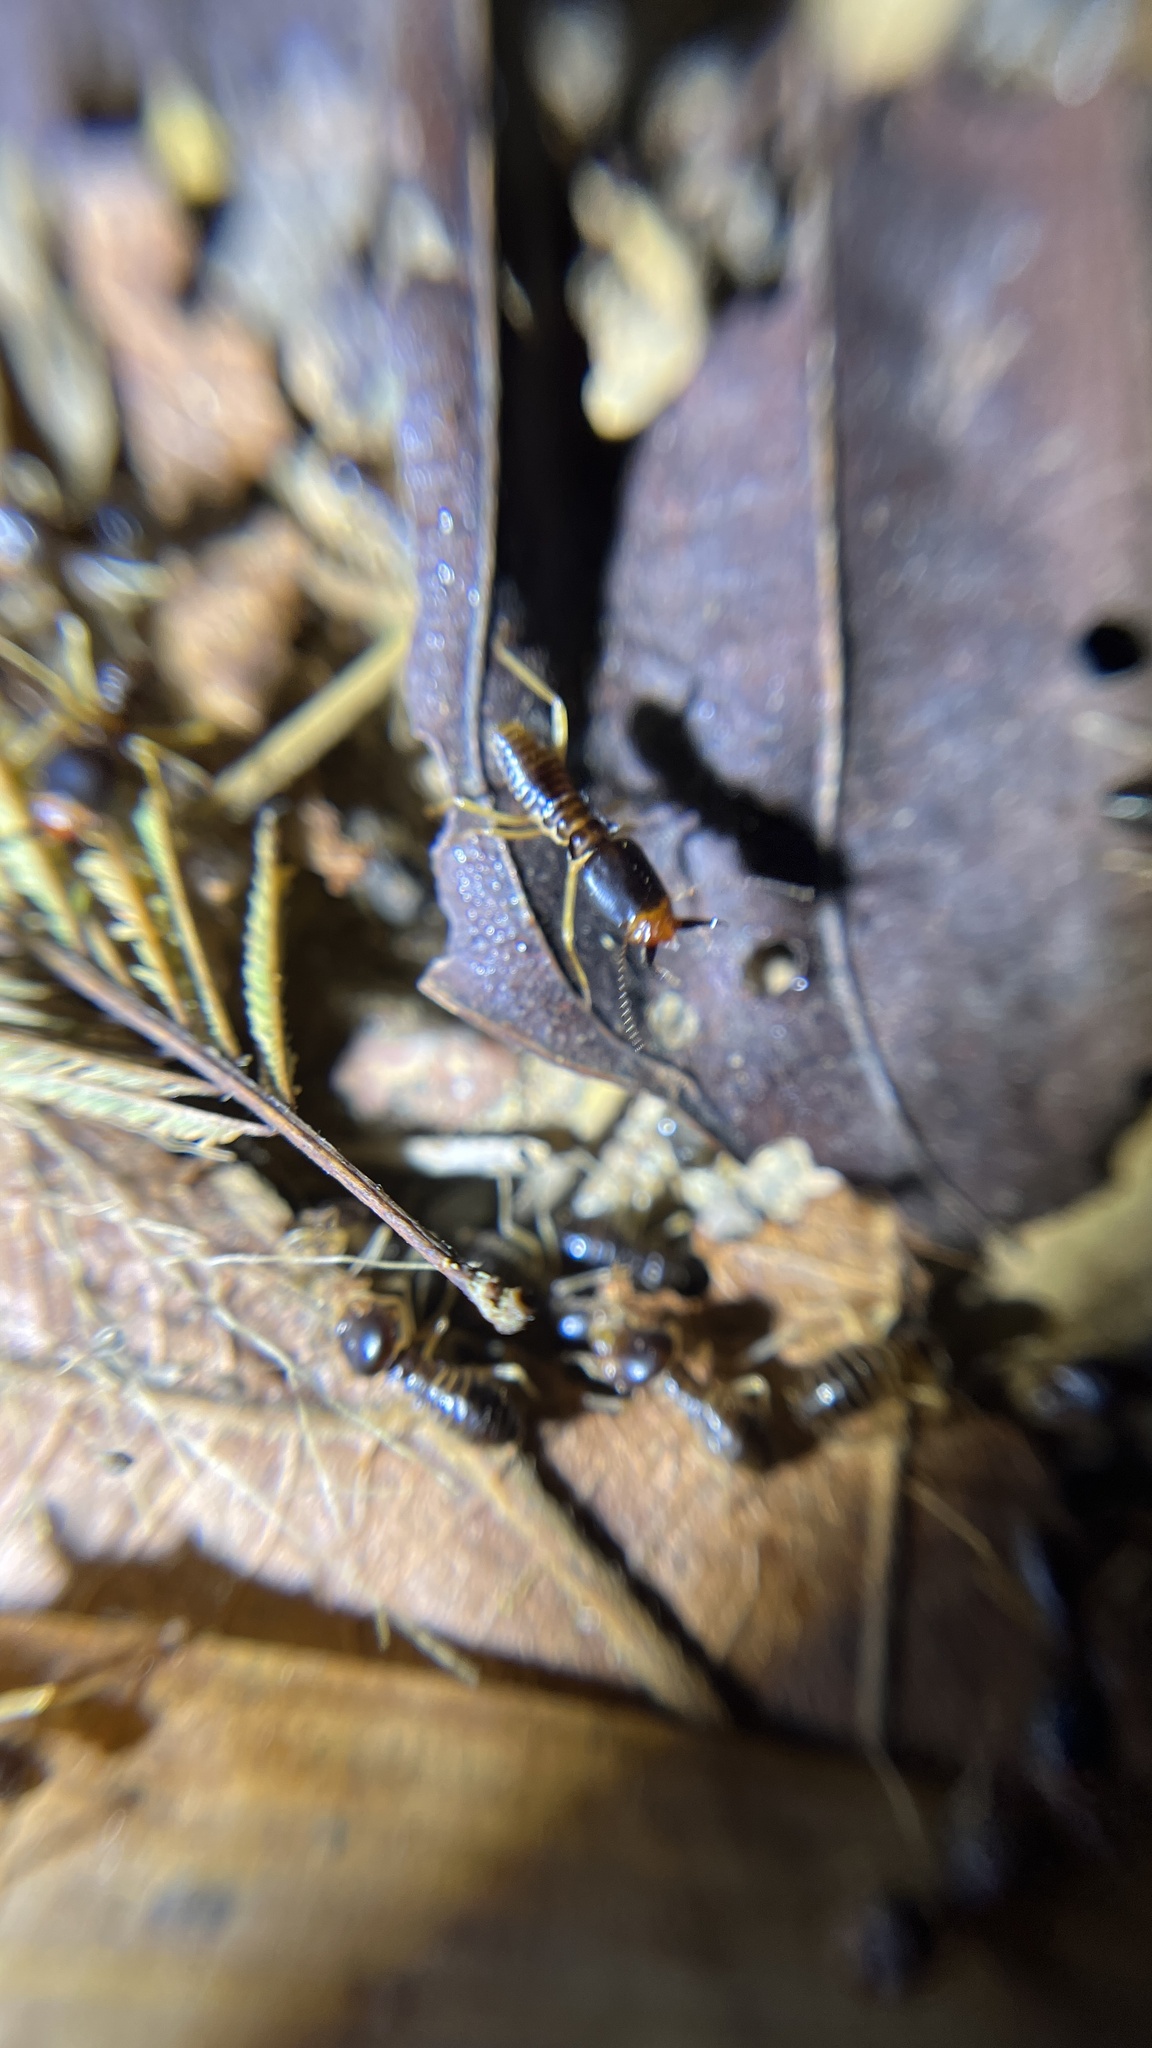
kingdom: Animalia
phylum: Arthropoda
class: Insecta
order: Blattodea
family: Termitidae
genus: Macrotermes
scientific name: Macrotermes carbonarius
